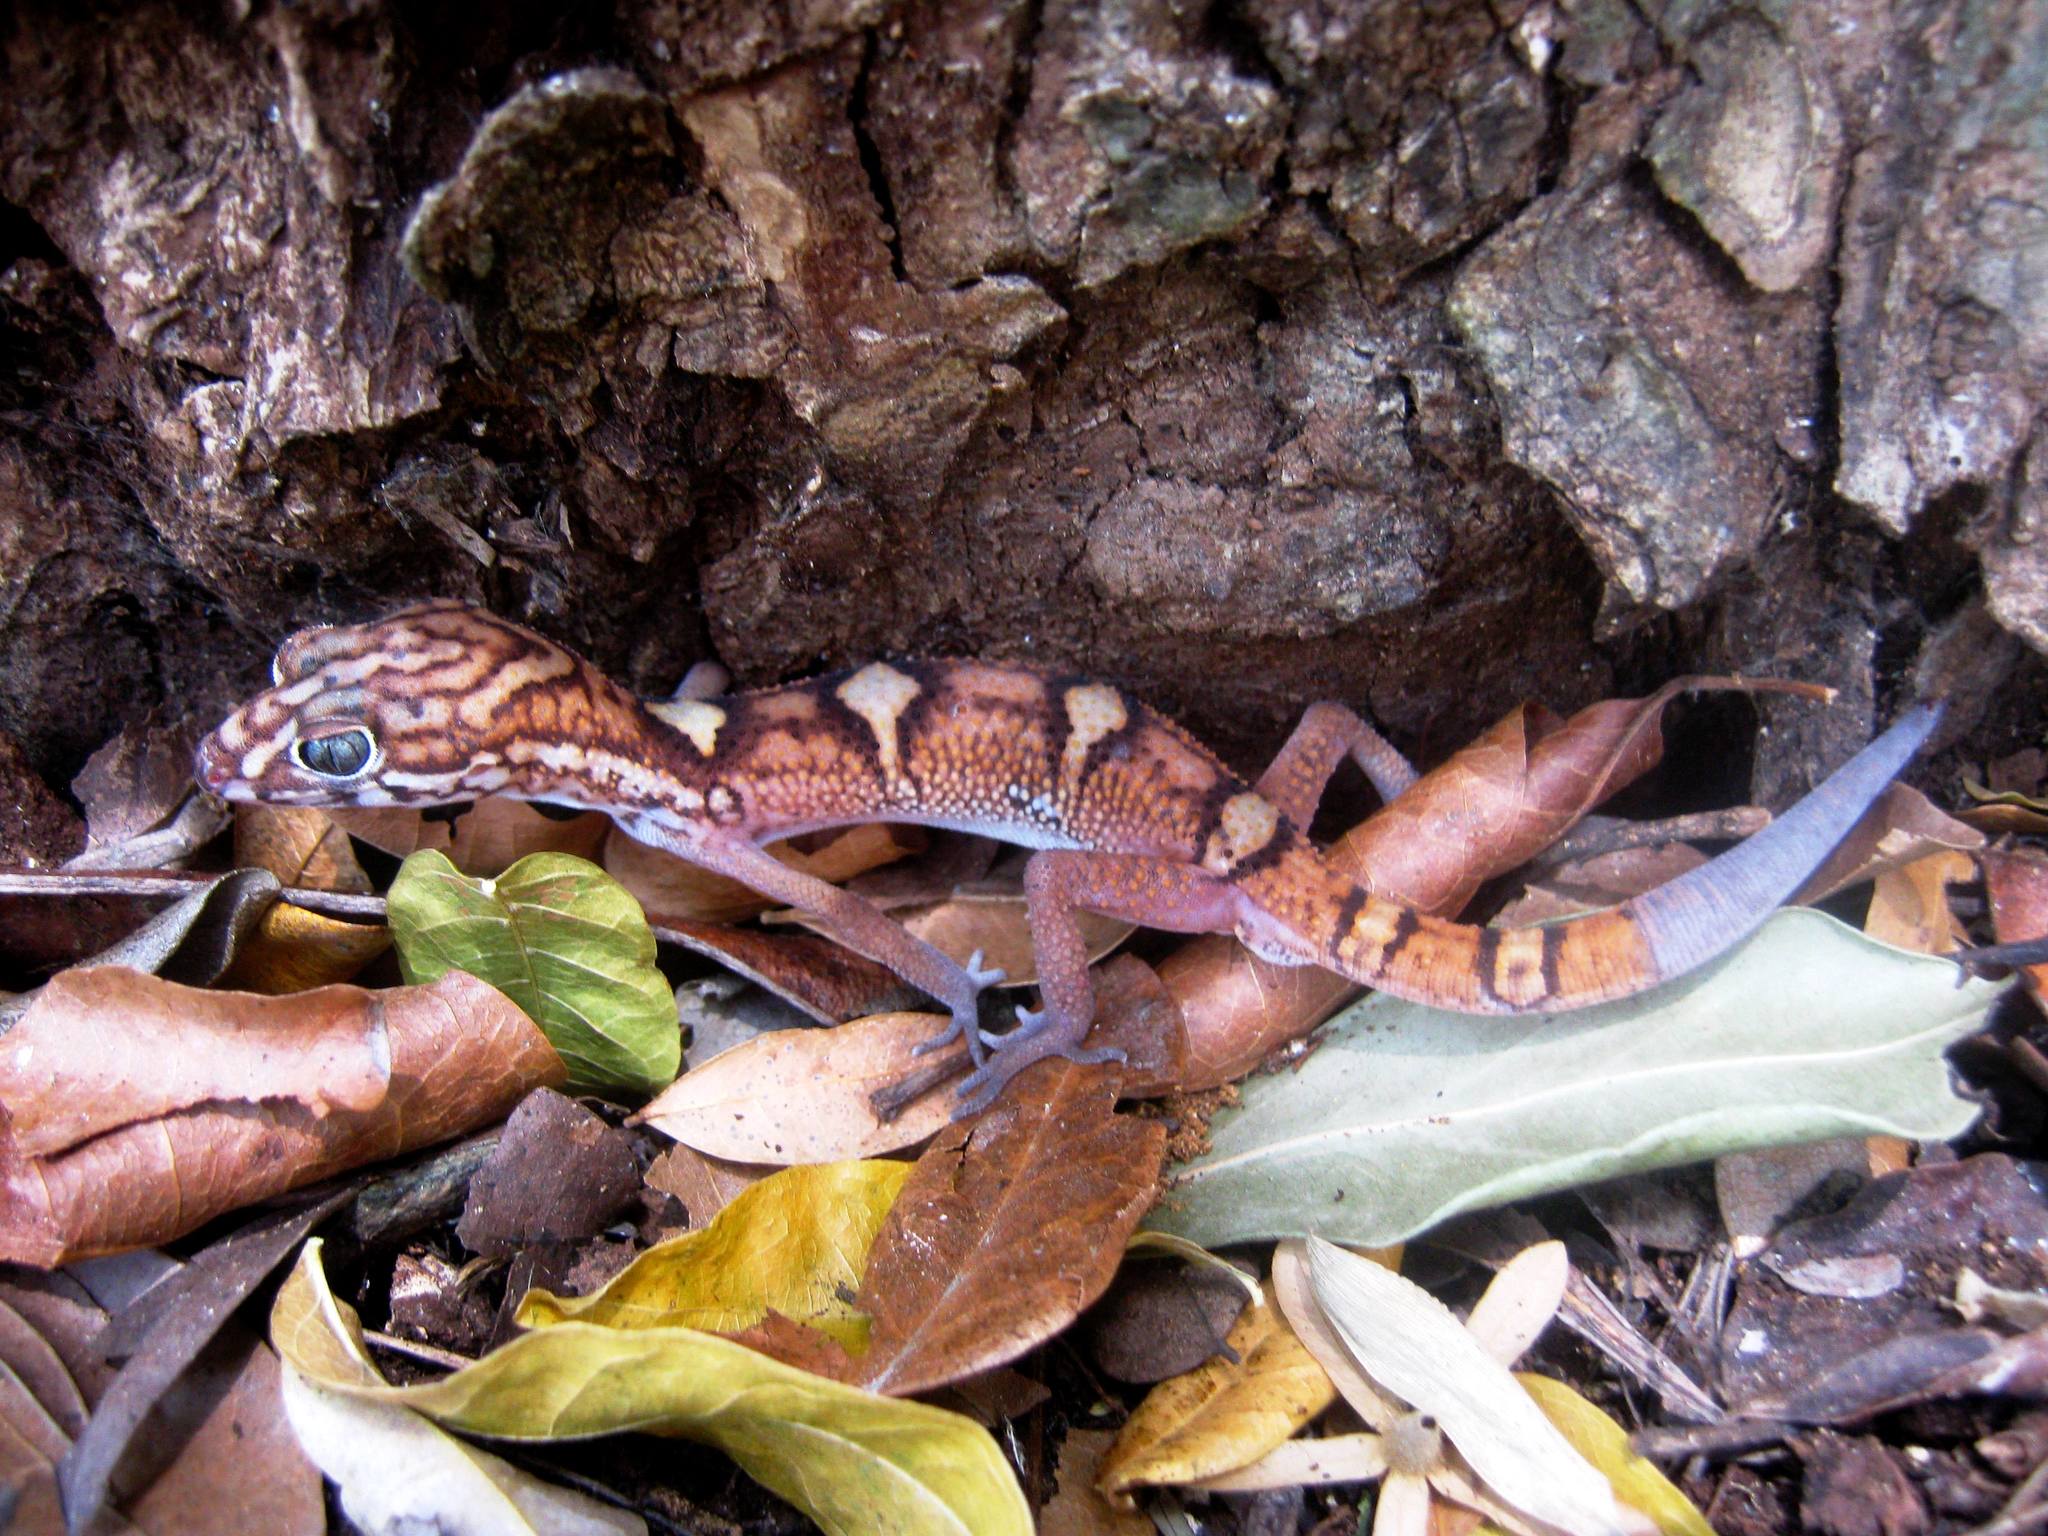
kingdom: Animalia
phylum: Chordata
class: Squamata
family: Eublepharidae
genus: Coleonyx
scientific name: Coleonyx elegans
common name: Yucatan banded gecko
